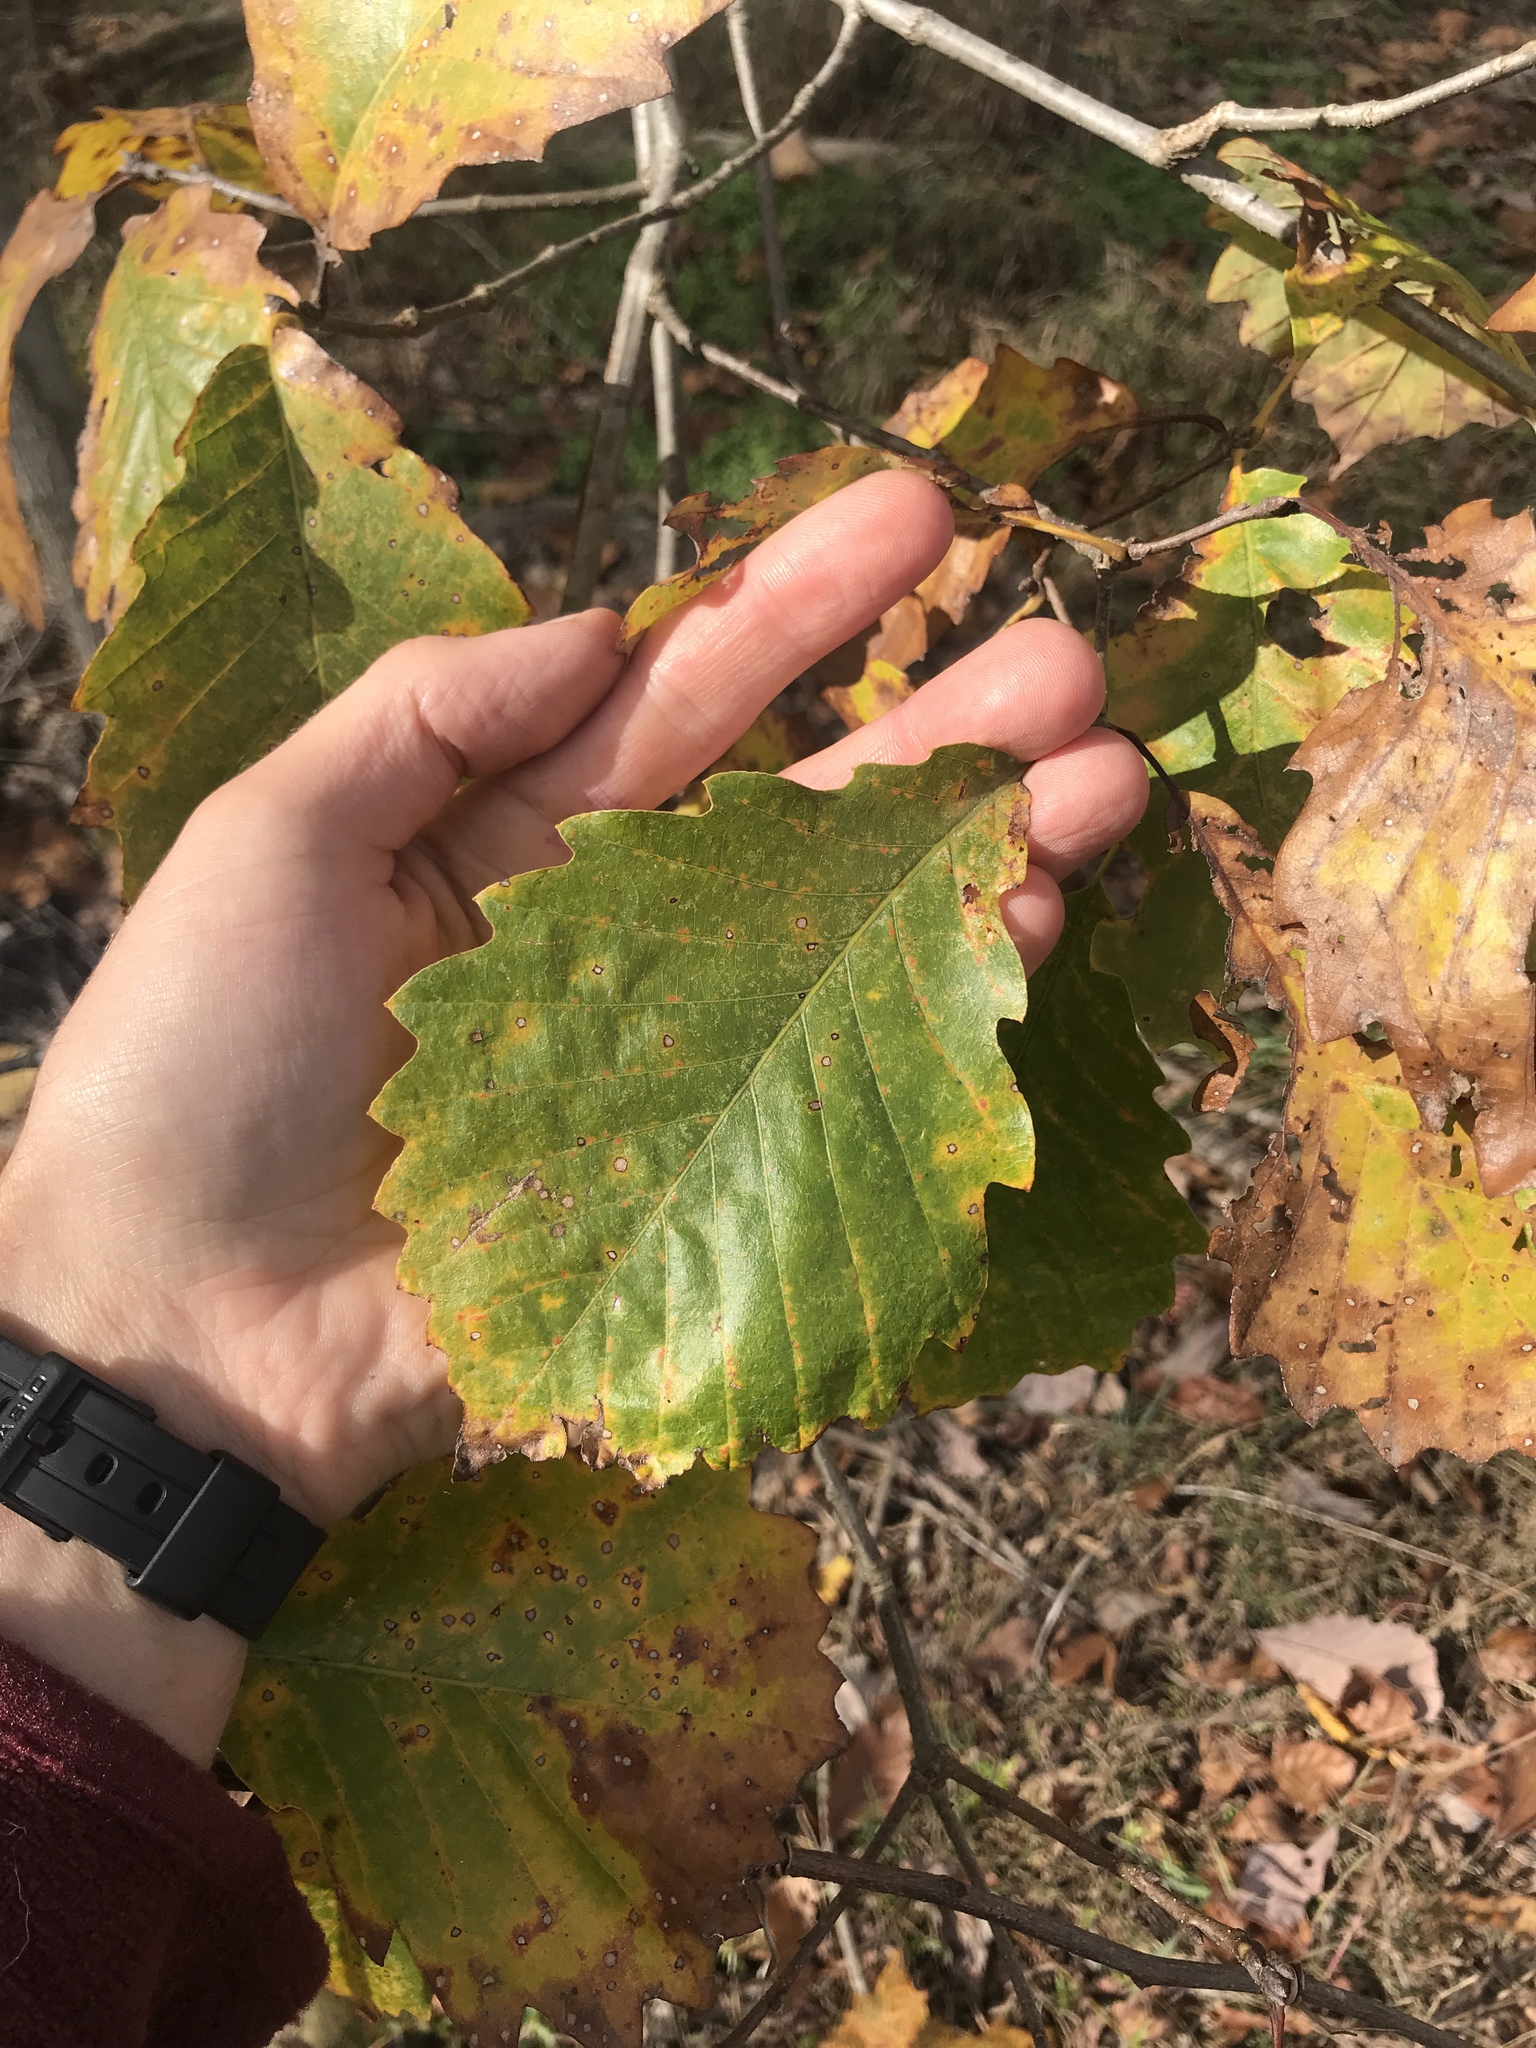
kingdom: Plantae
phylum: Tracheophyta
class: Magnoliopsida
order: Fagales
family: Fagaceae
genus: Quercus
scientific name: Quercus muehlenbergii
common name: Chinkapin oak
